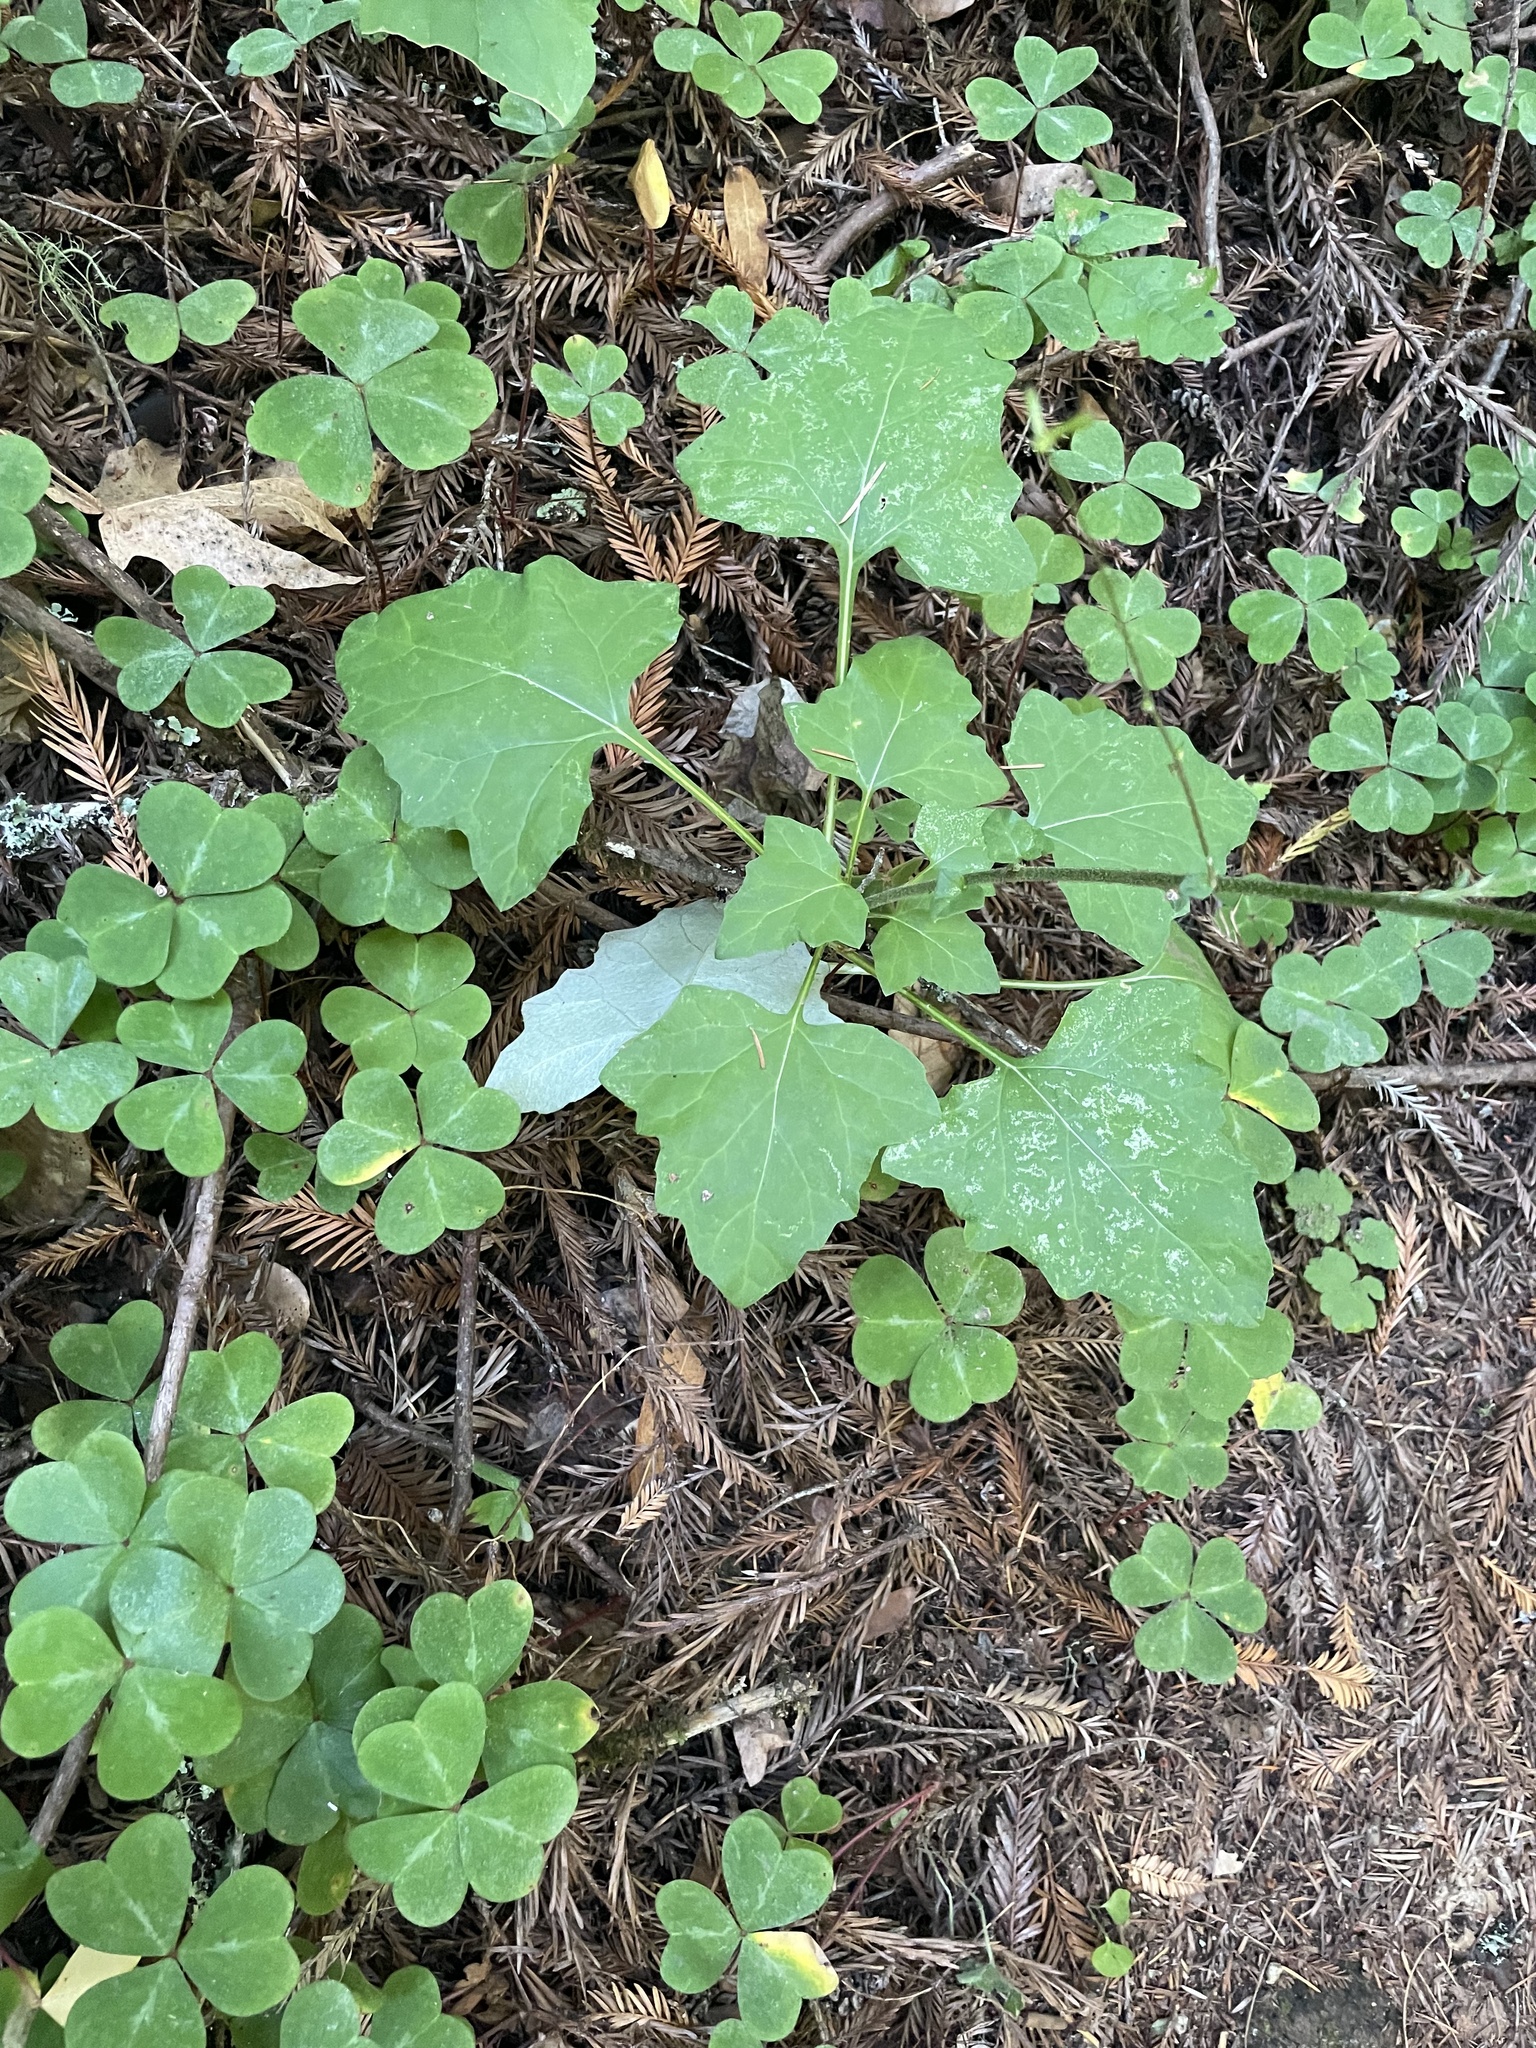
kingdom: Plantae
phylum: Tracheophyta
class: Magnoliopsida
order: Asterales
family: Asteraceae
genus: Adenocaulon
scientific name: Adenocaulon bicolor
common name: Trailplant
